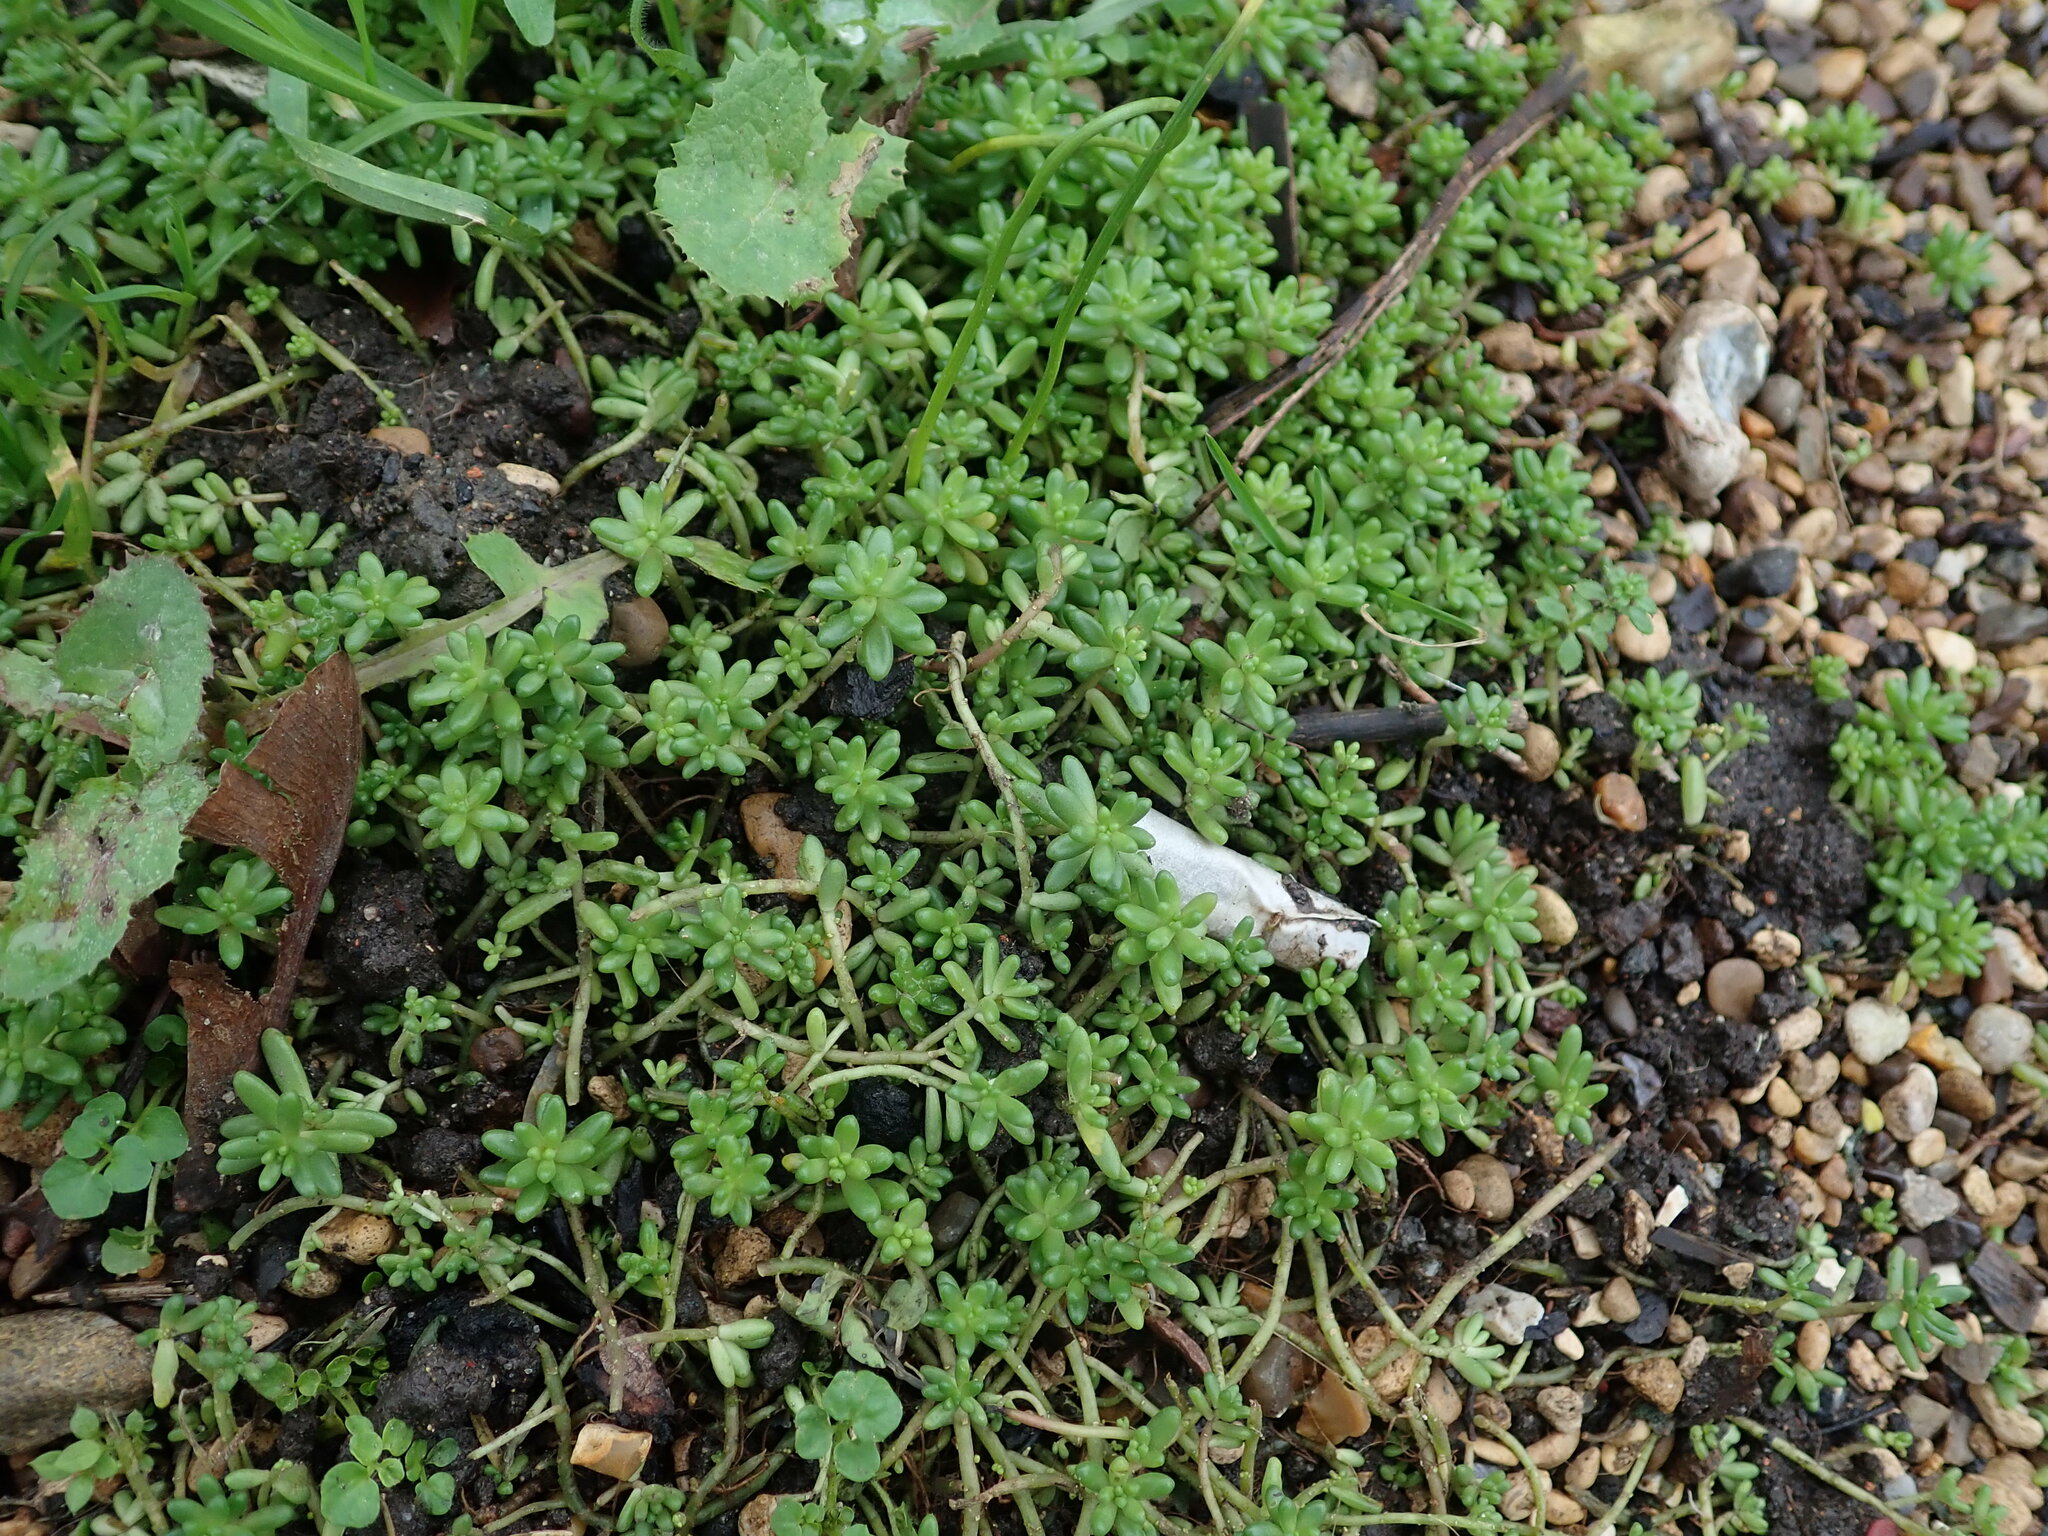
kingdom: Plantae
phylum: Tracheophyta
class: Magnoliopsida
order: Saxifragales
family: Crassulaceae
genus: Sedum
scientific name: Sedum album
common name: White stonecrop
